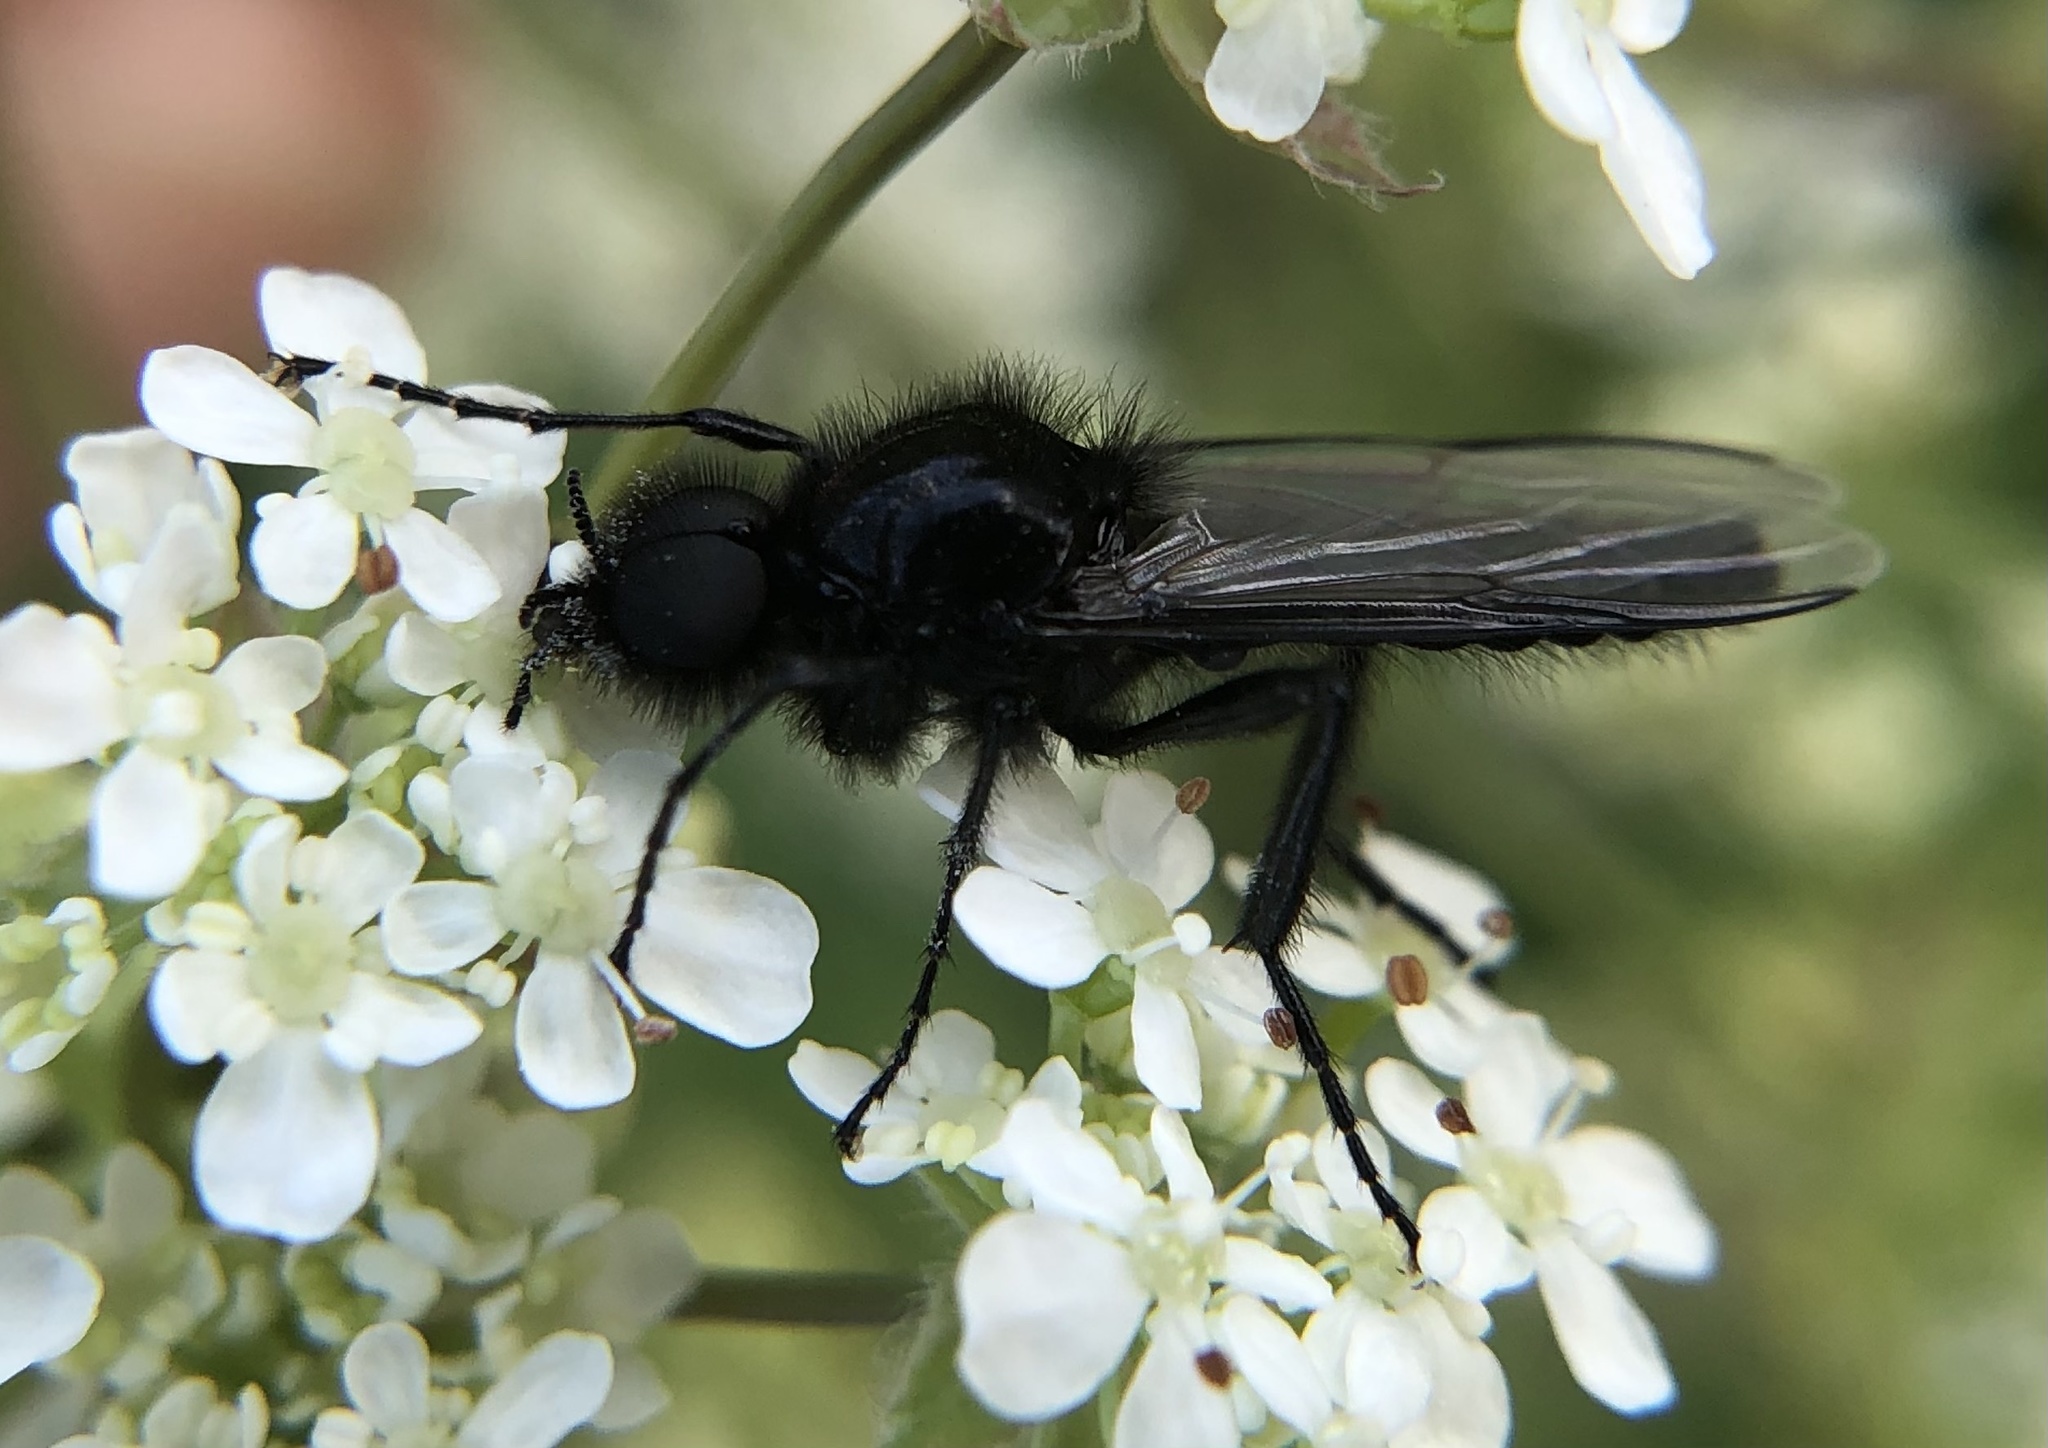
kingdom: Animalia
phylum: Arthropoda
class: Insecta
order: Diptera
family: Bibionidae
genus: Bibio
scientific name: Bibio marci
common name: St marks fly
